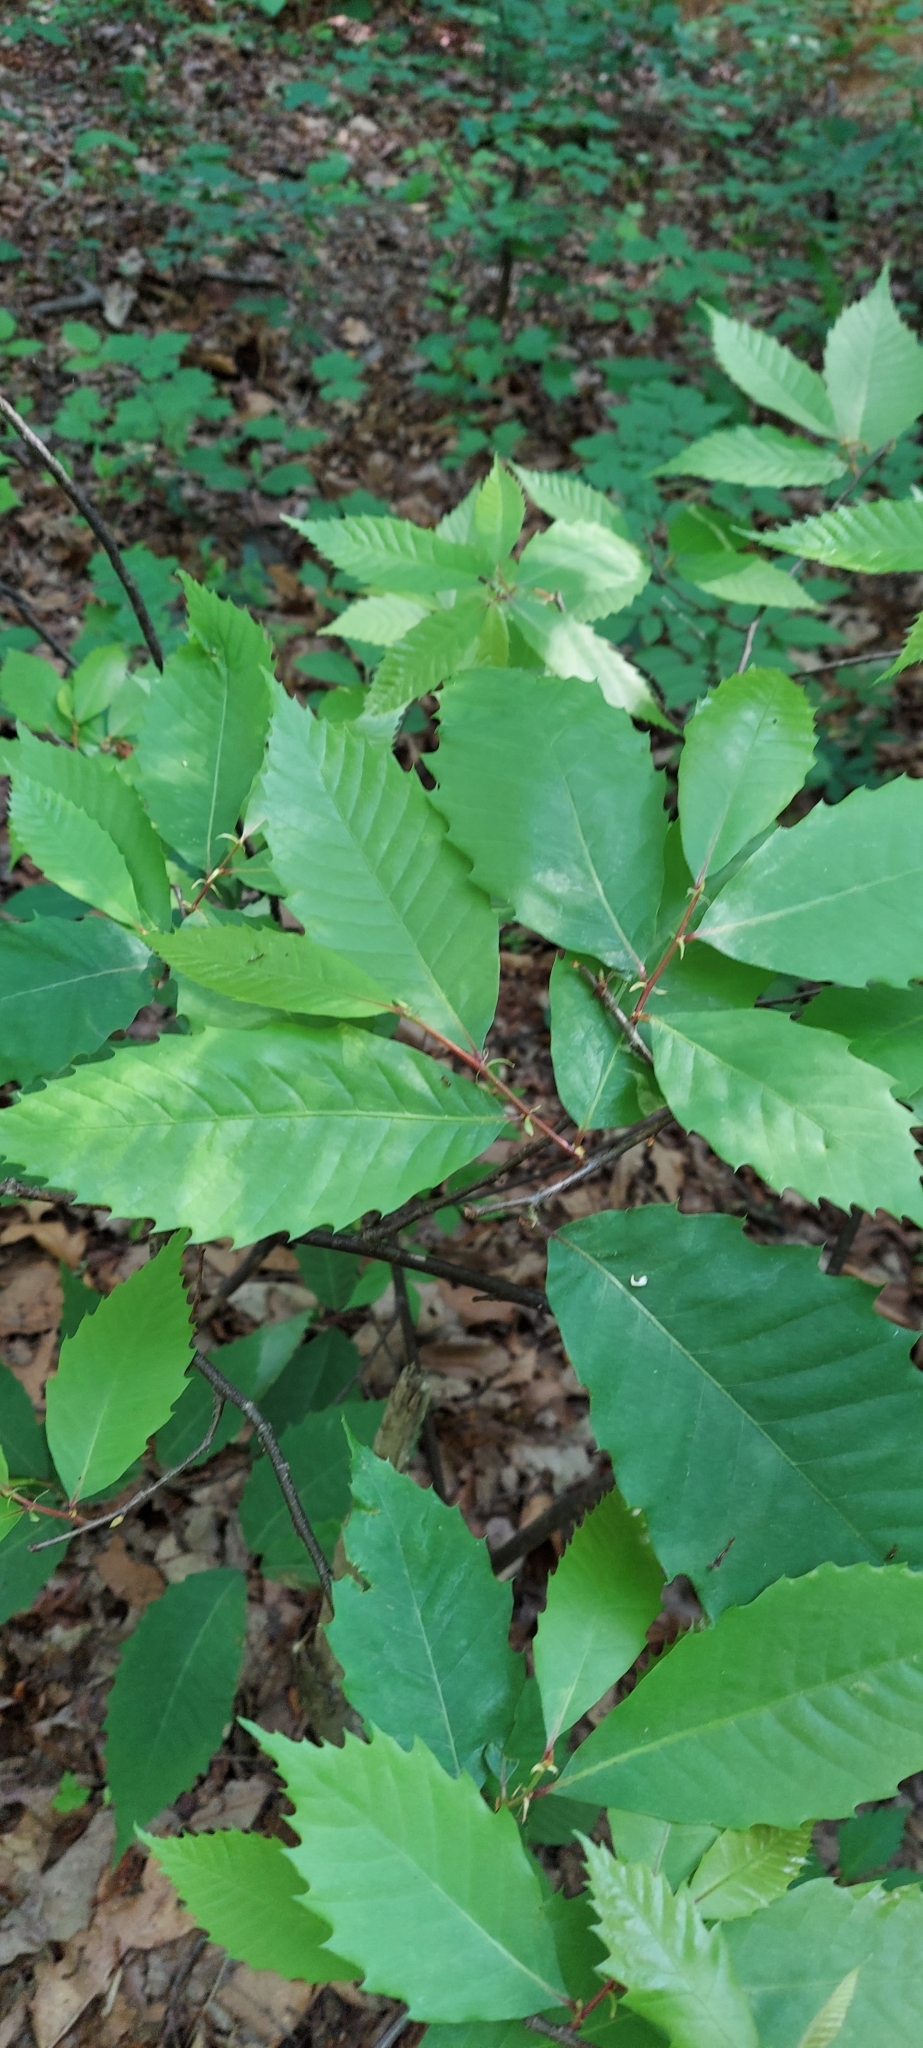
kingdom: Plantae
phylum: Tracheophyta
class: Magnoliopsida
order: Fagales
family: Fagaceae
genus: Castanea
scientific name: Castanea dentata
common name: American chestnut
